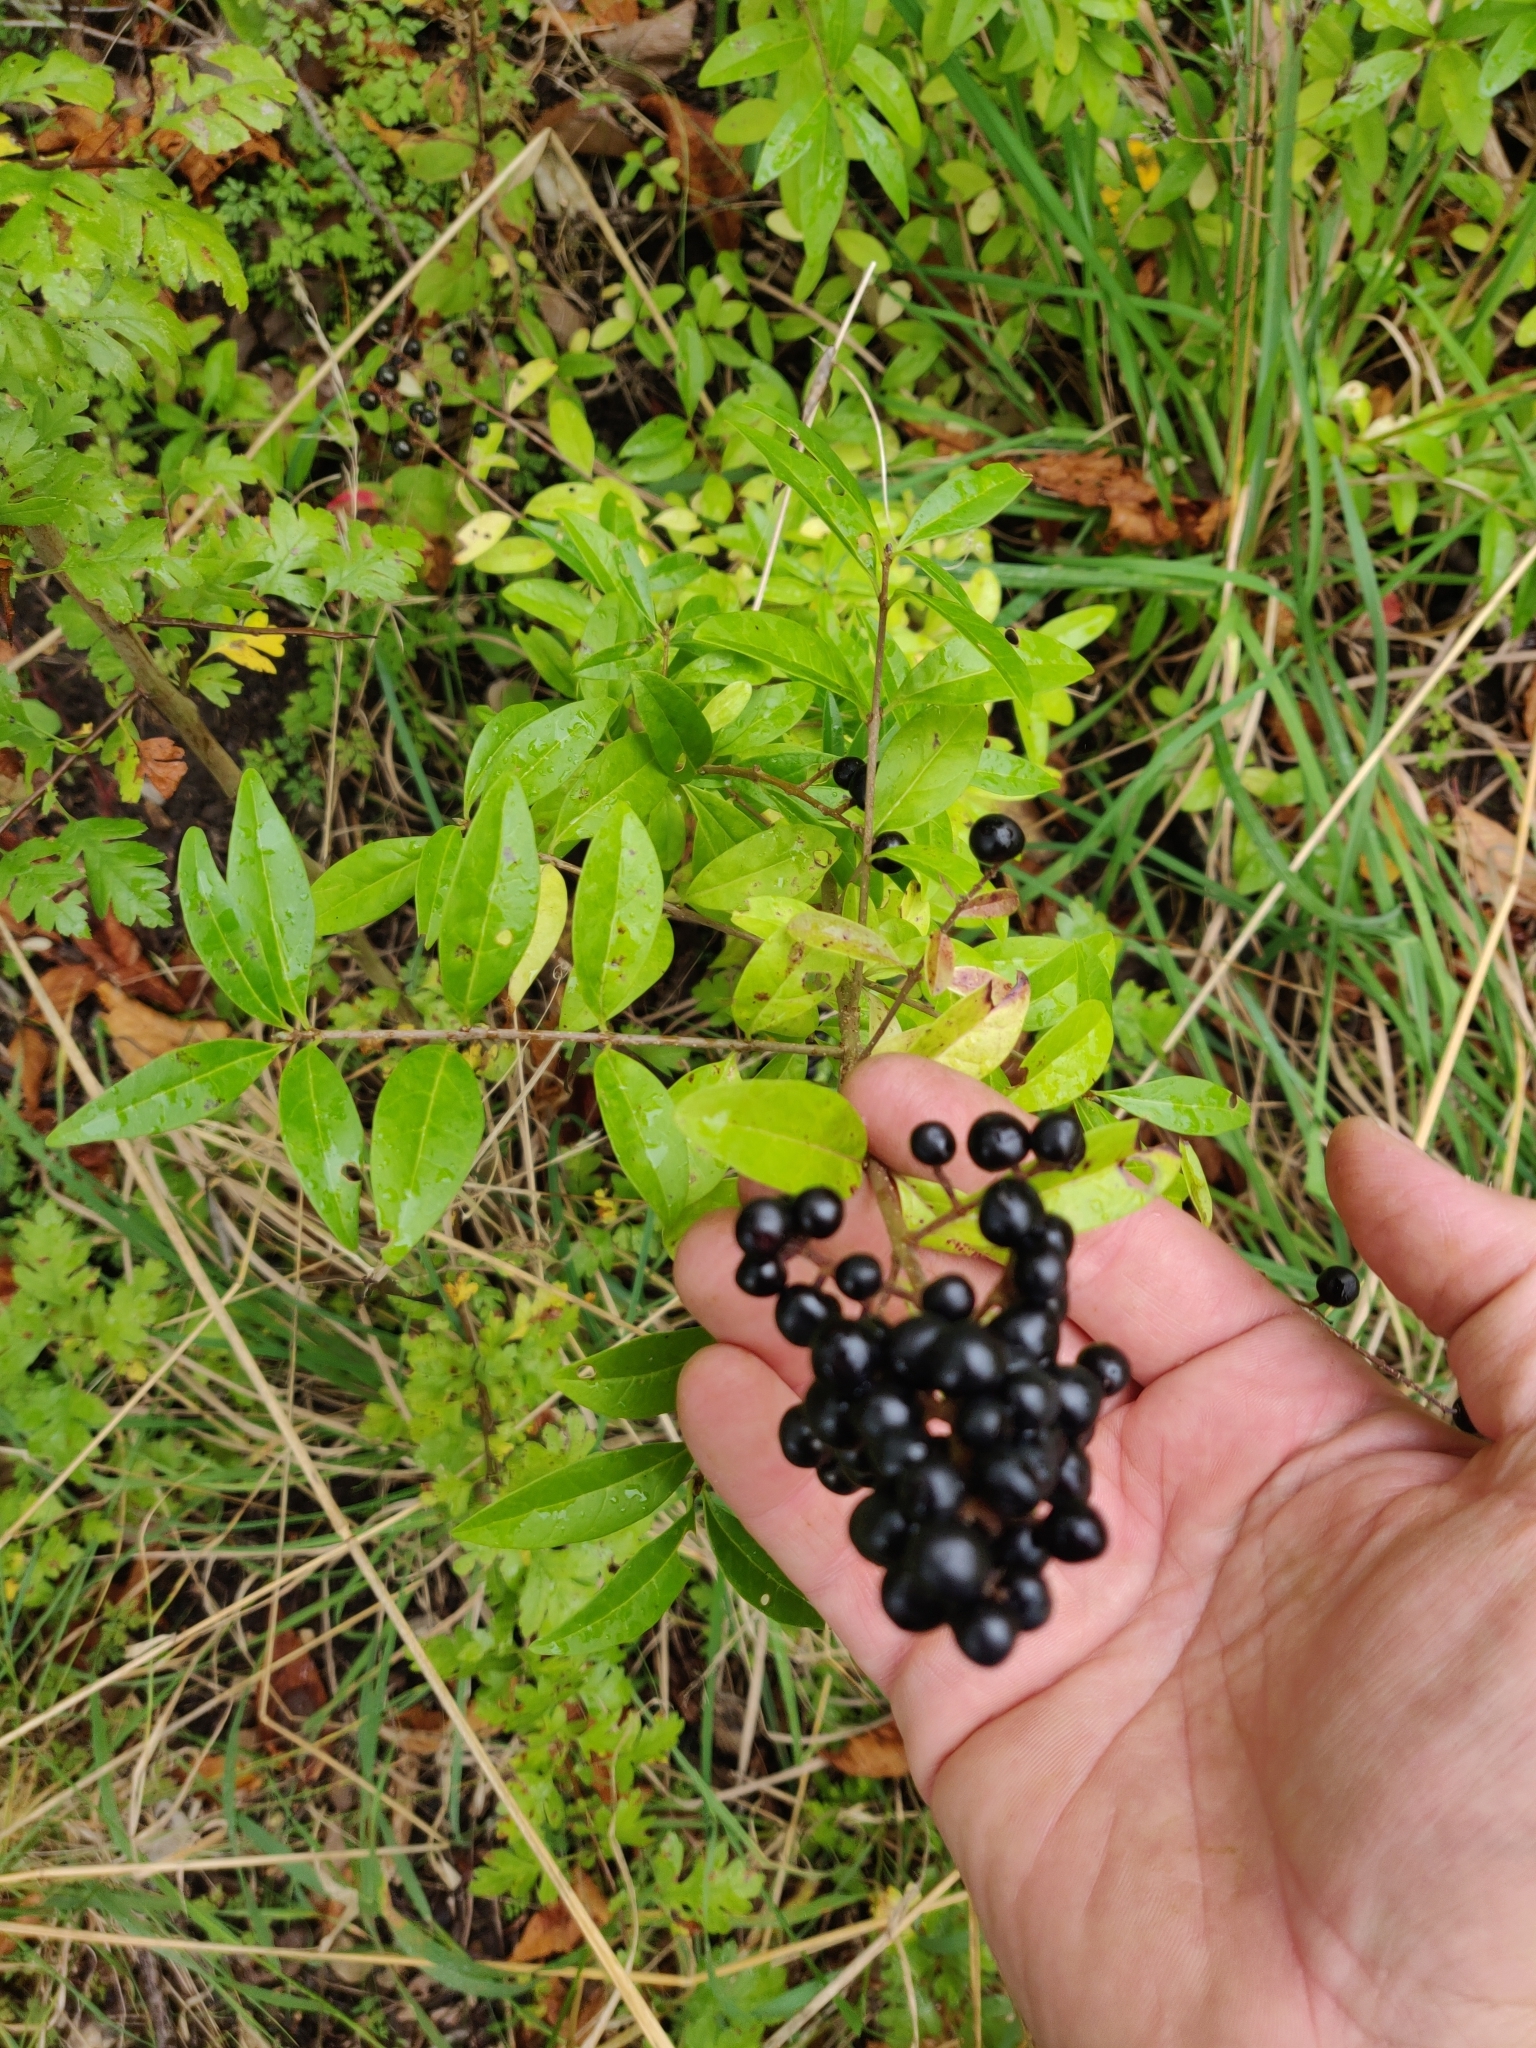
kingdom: Plantae
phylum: Tracheophyta
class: Magnoliopsida
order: Lamiales
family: Oleaceae
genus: Ligustrum
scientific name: Ligustrum vulgare
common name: Wild privet
